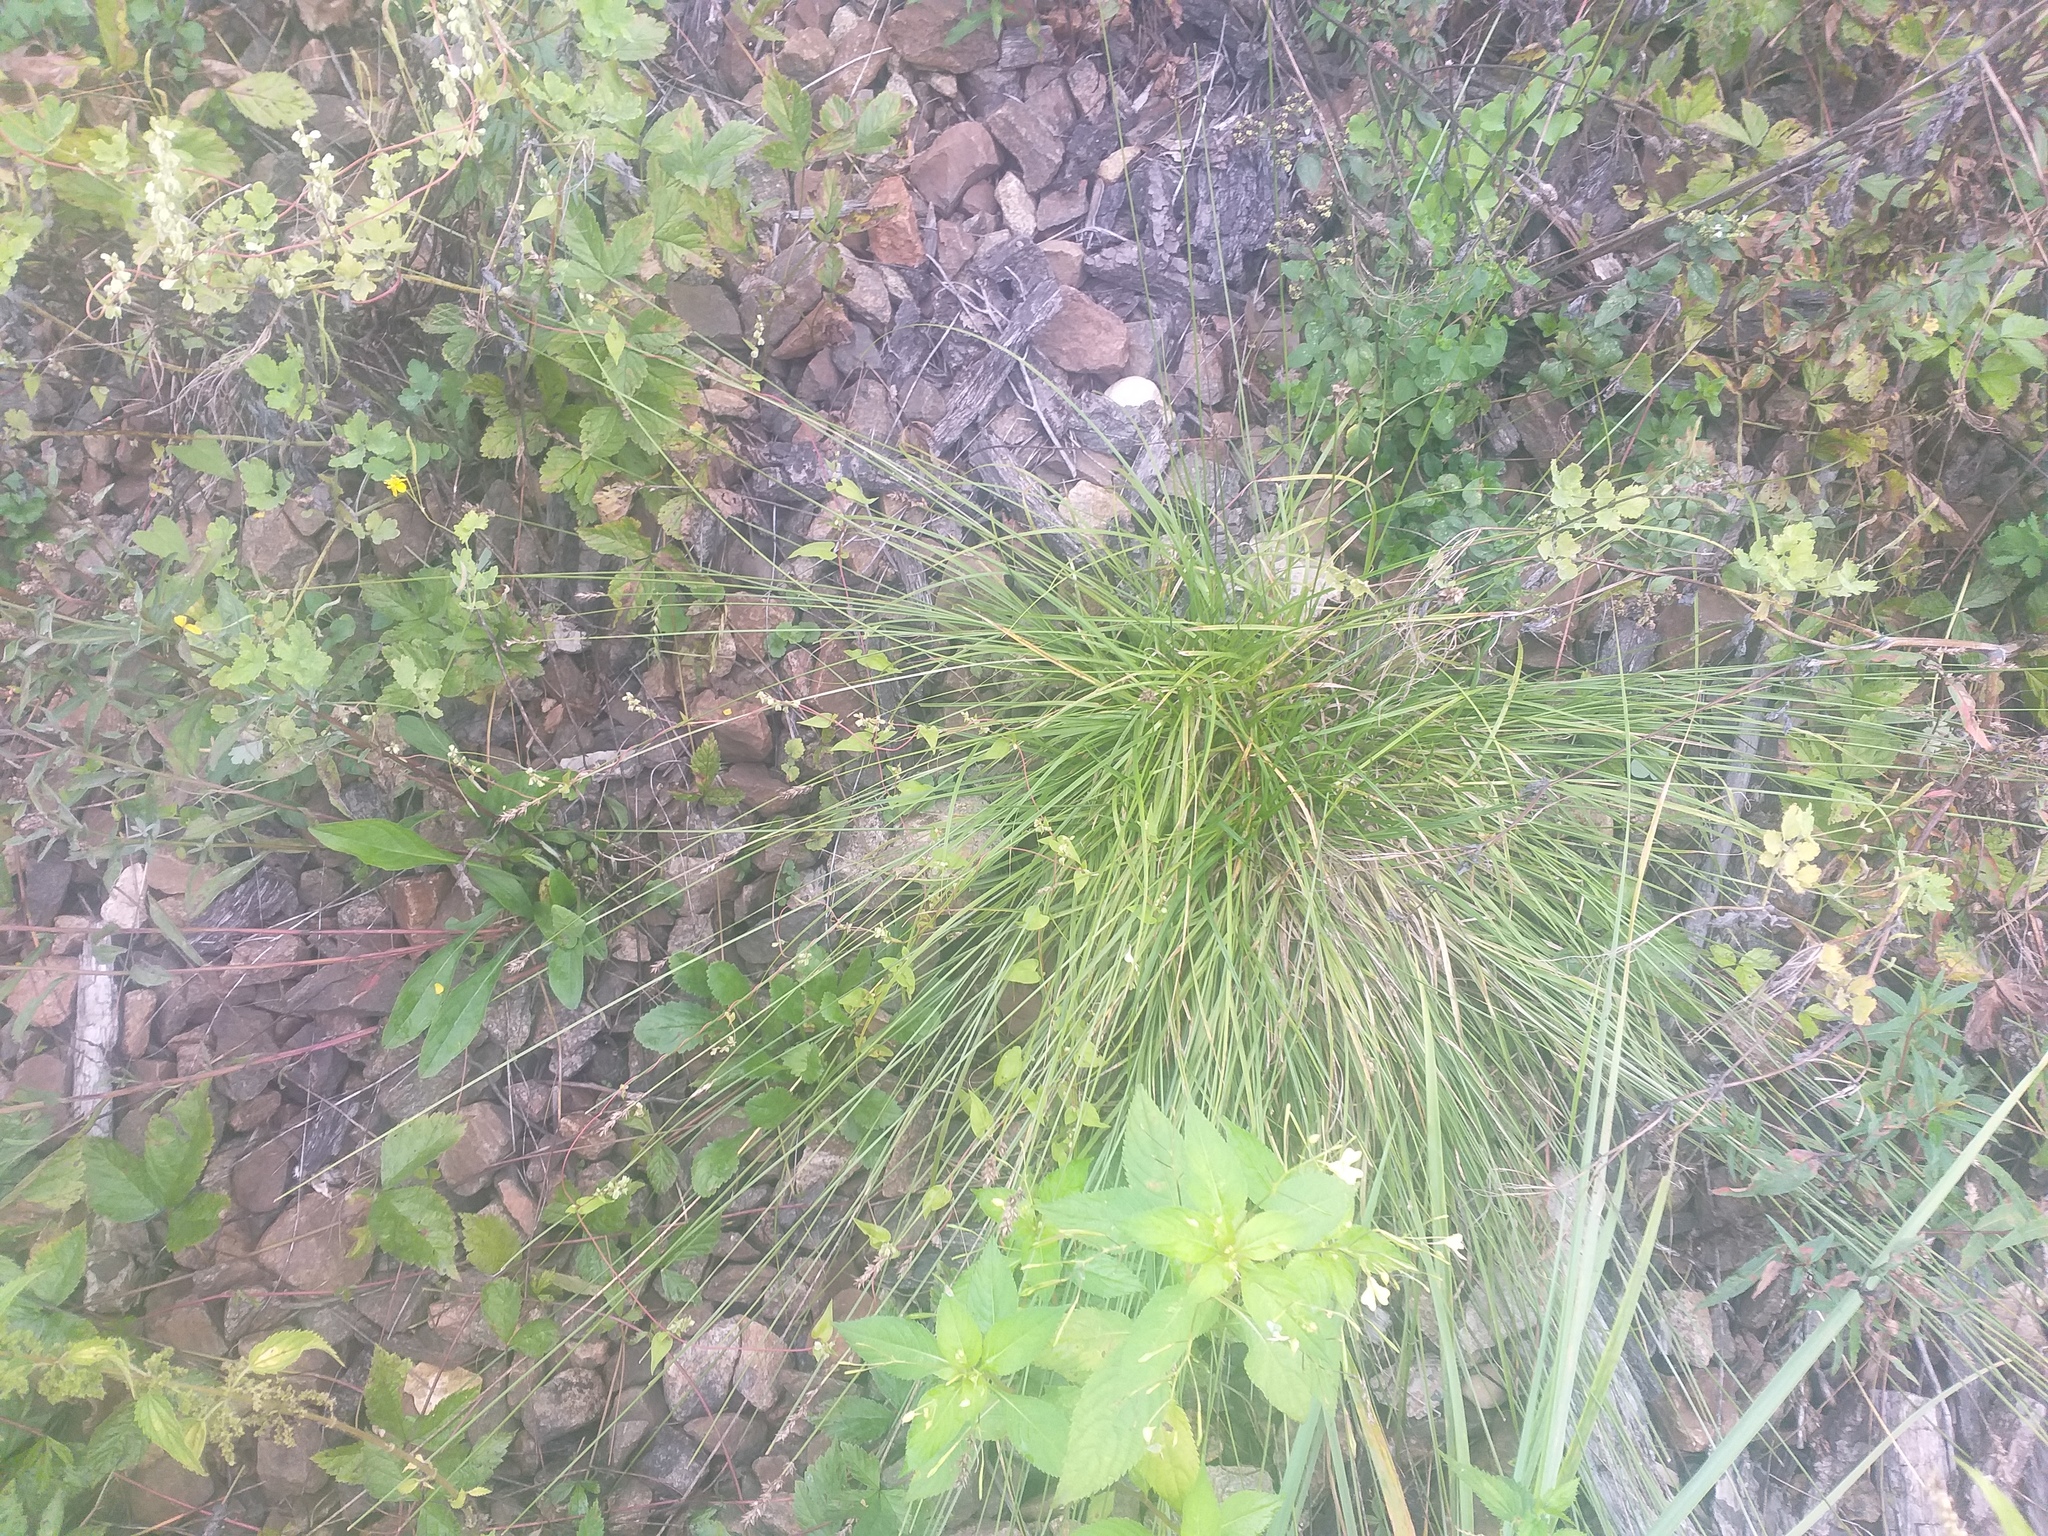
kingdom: Plantae
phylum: Tracheophyta
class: Liliopsida
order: Poales
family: Cyperaceae
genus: Carex
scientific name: Carex spicata
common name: Spiked sedge
